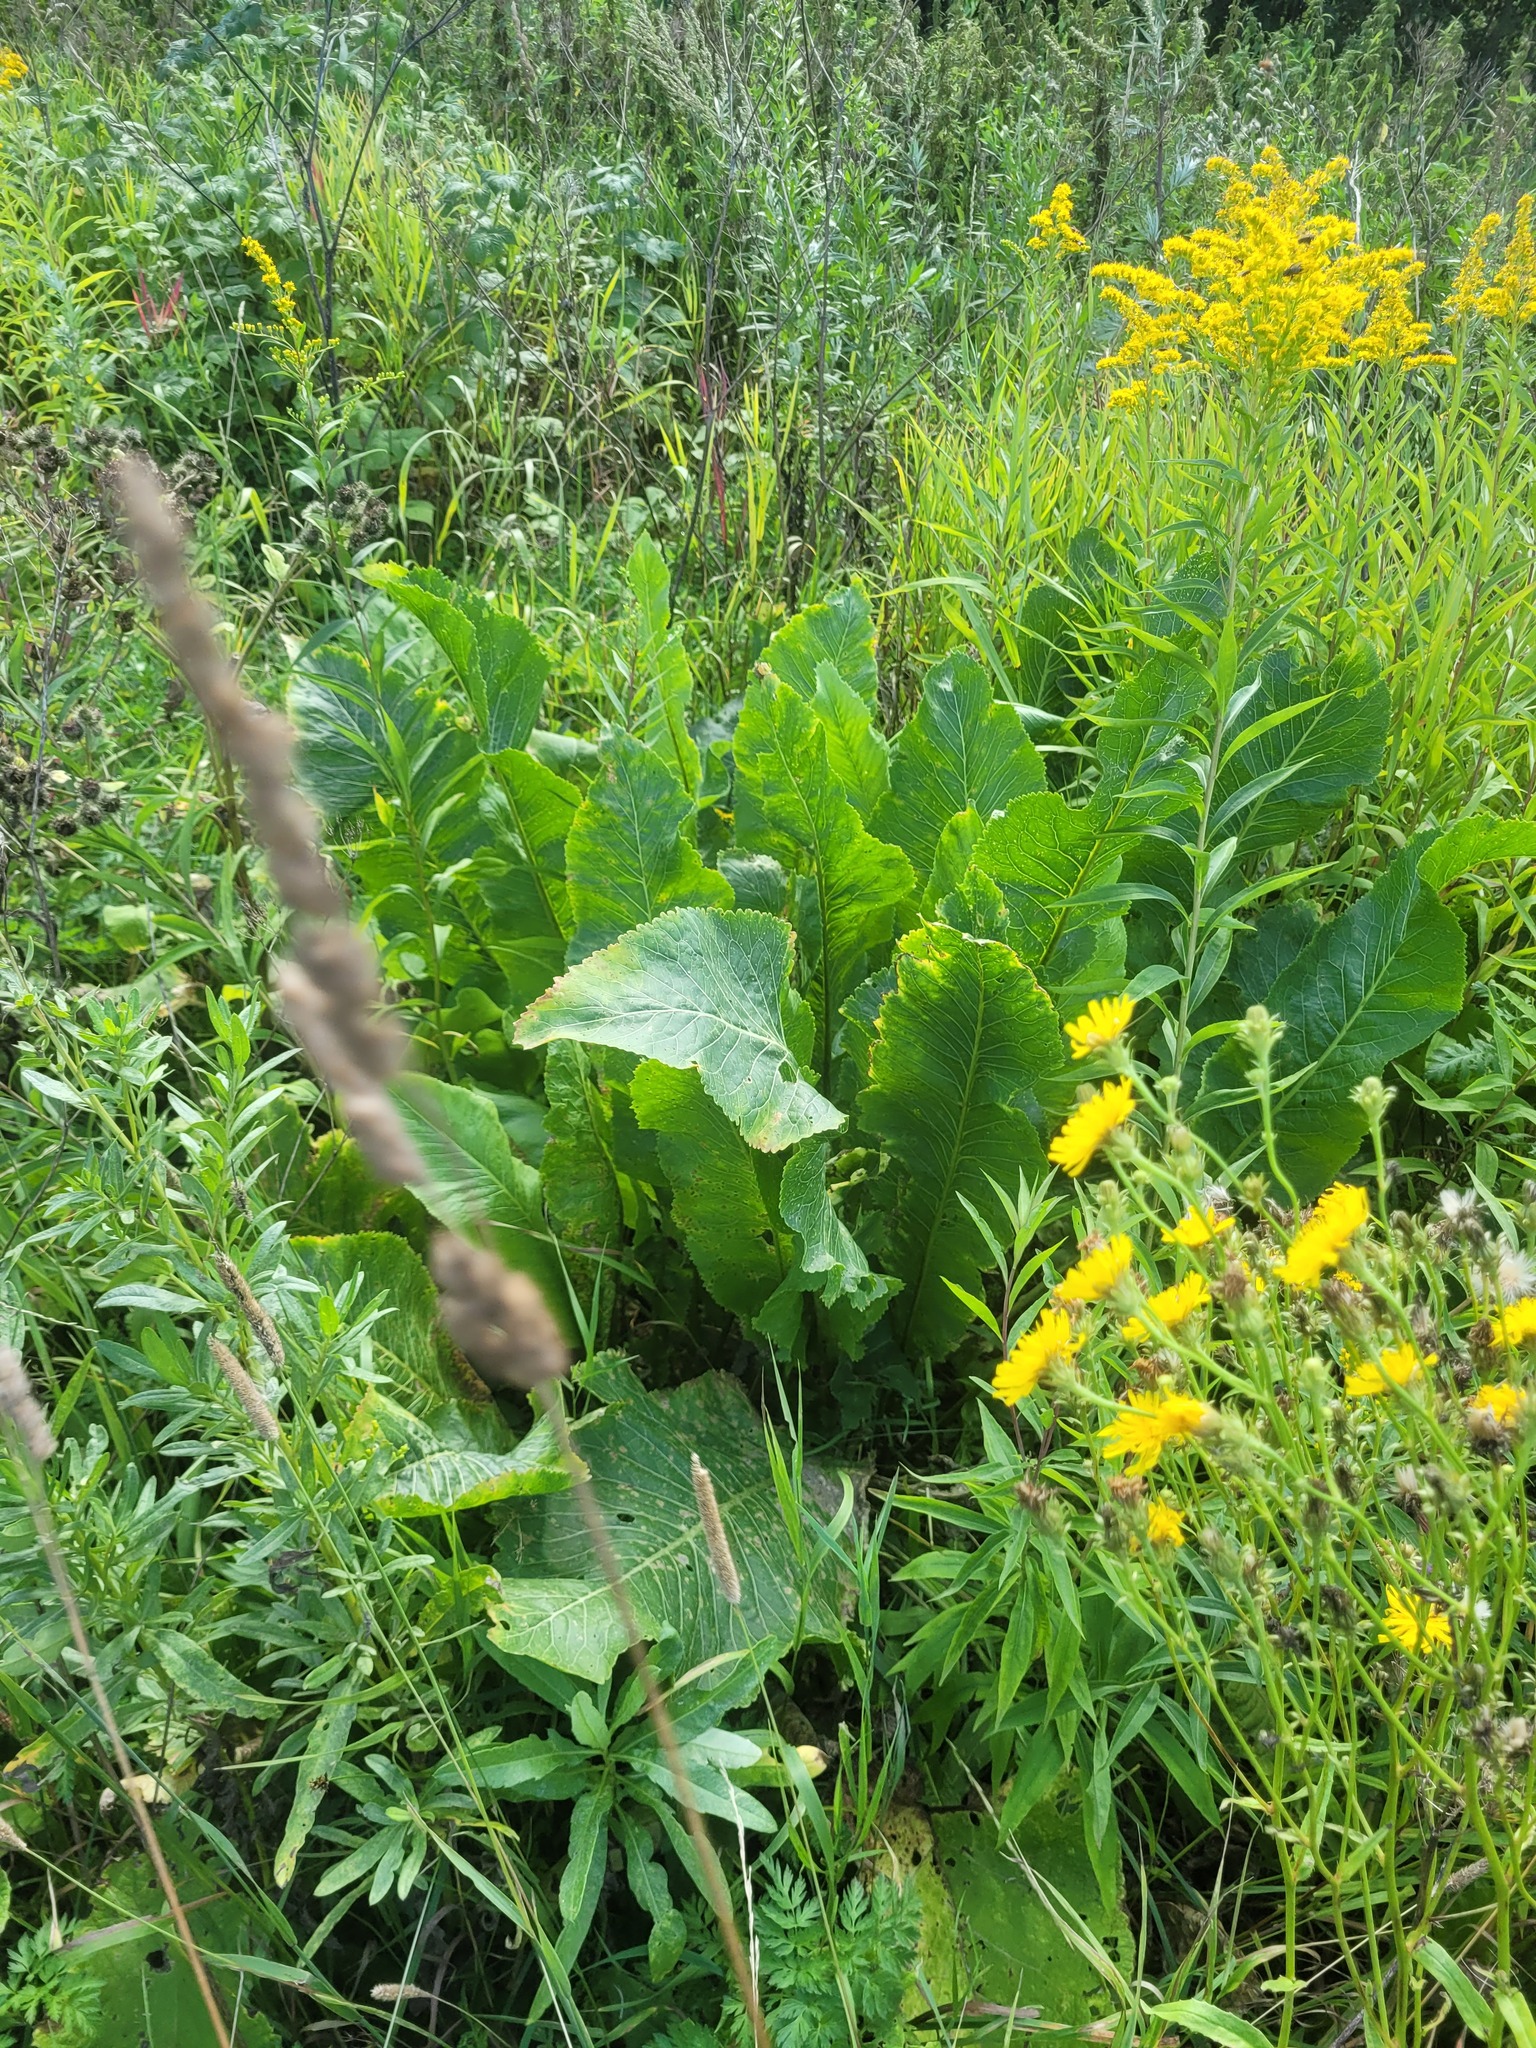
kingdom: Plantae
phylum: Tracheophyta
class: Magnoliopsida
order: Brassicales
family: Brassicaceae
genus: Armoracia
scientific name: Armoracia rusticana
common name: Horseradish
